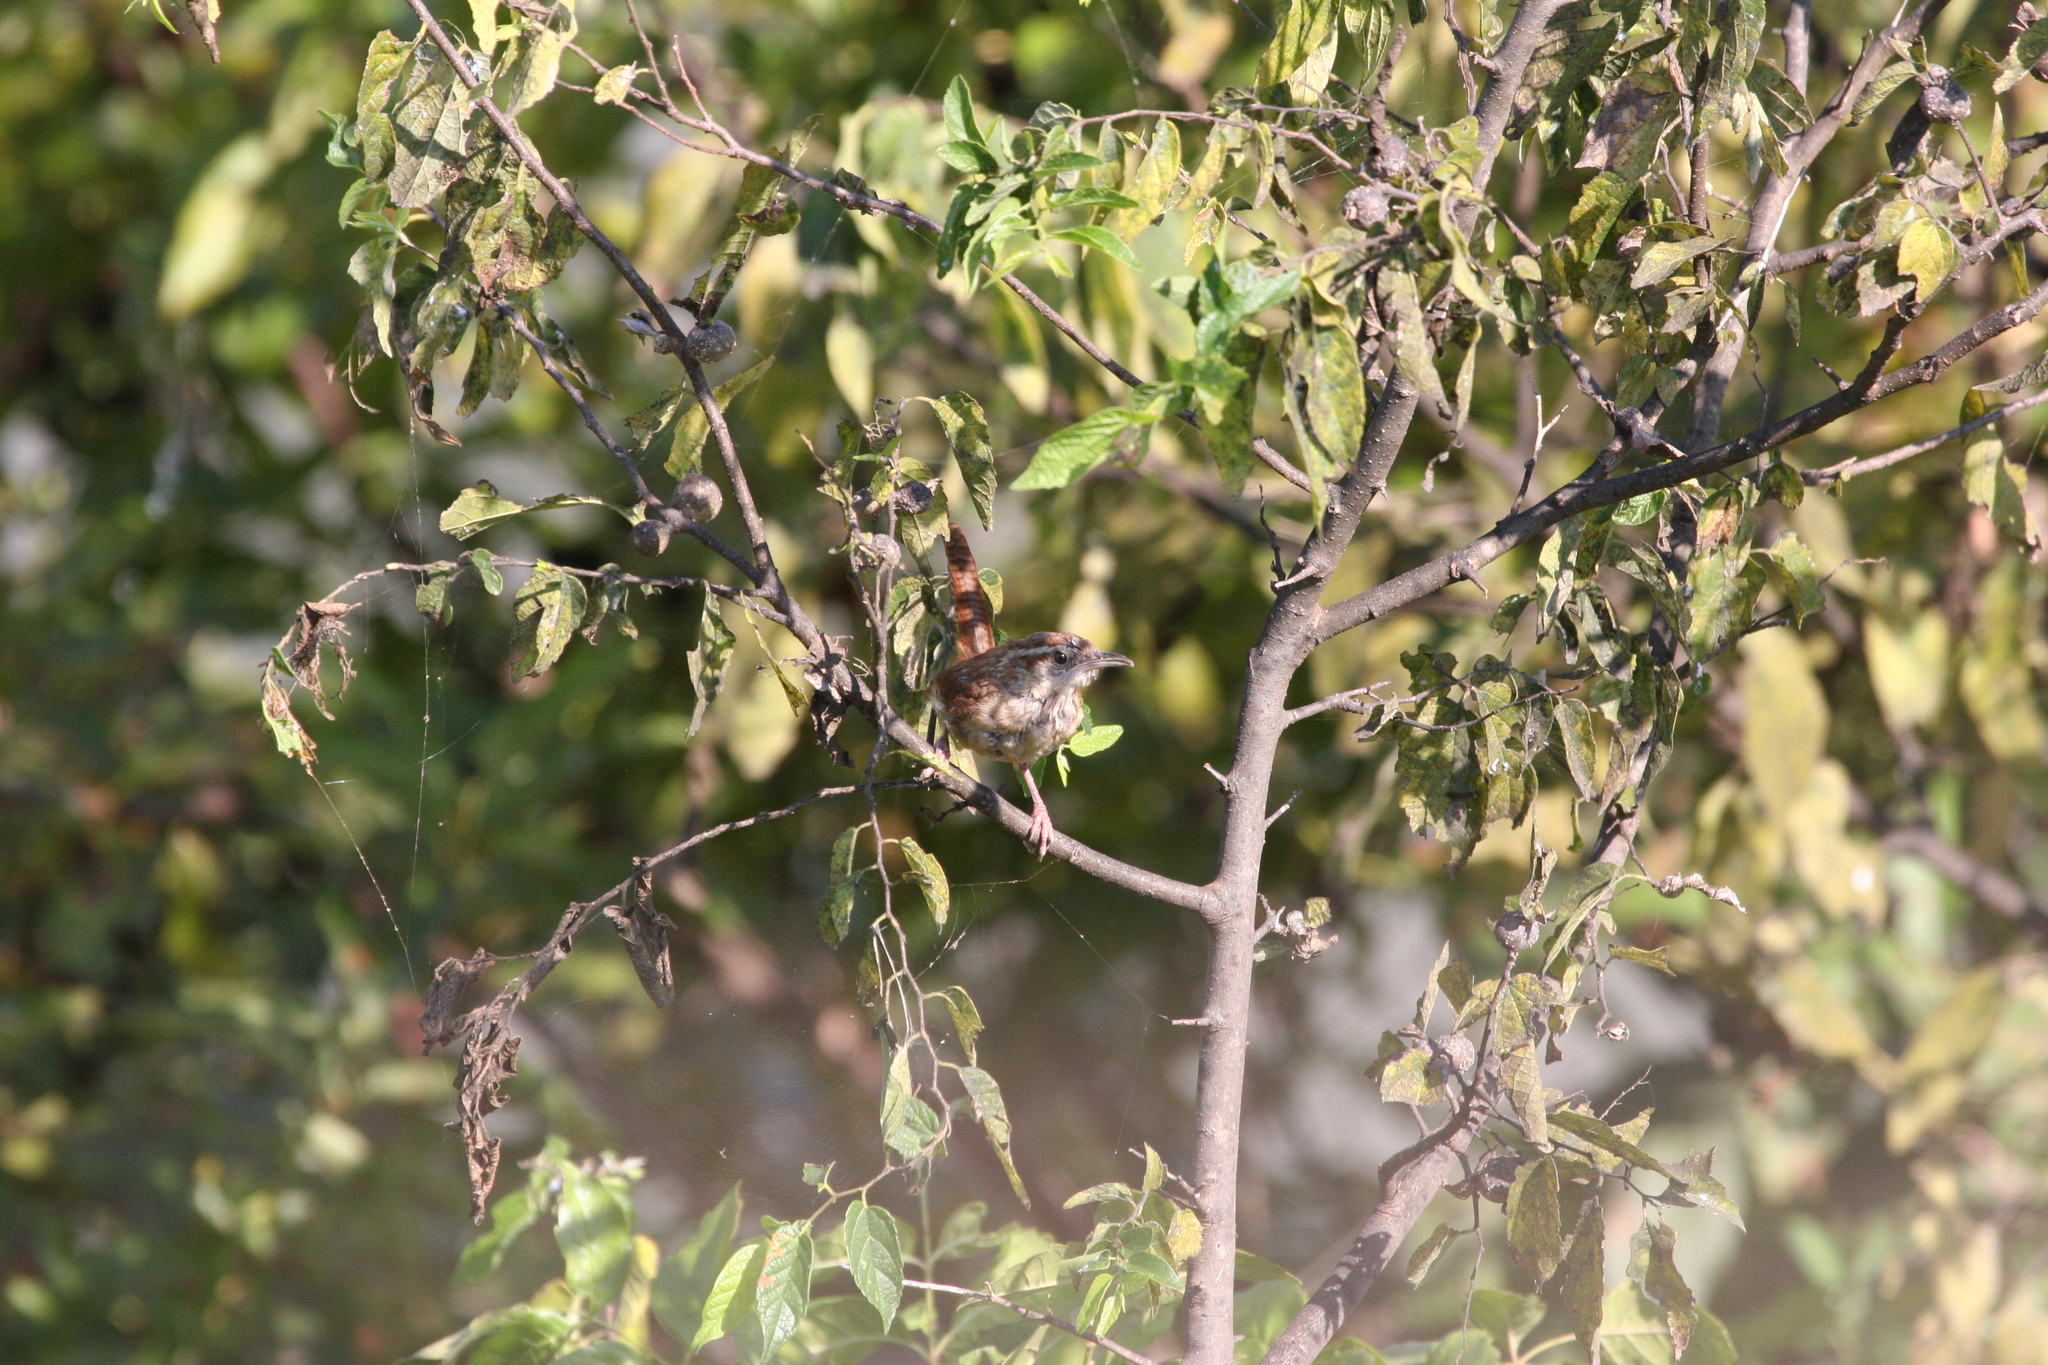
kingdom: Animalia
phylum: Chordata
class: Aves
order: Passeriformes
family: Troglodytidae
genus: Thryothorus
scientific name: Thryothorus ludovicianus
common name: Carolina wren
